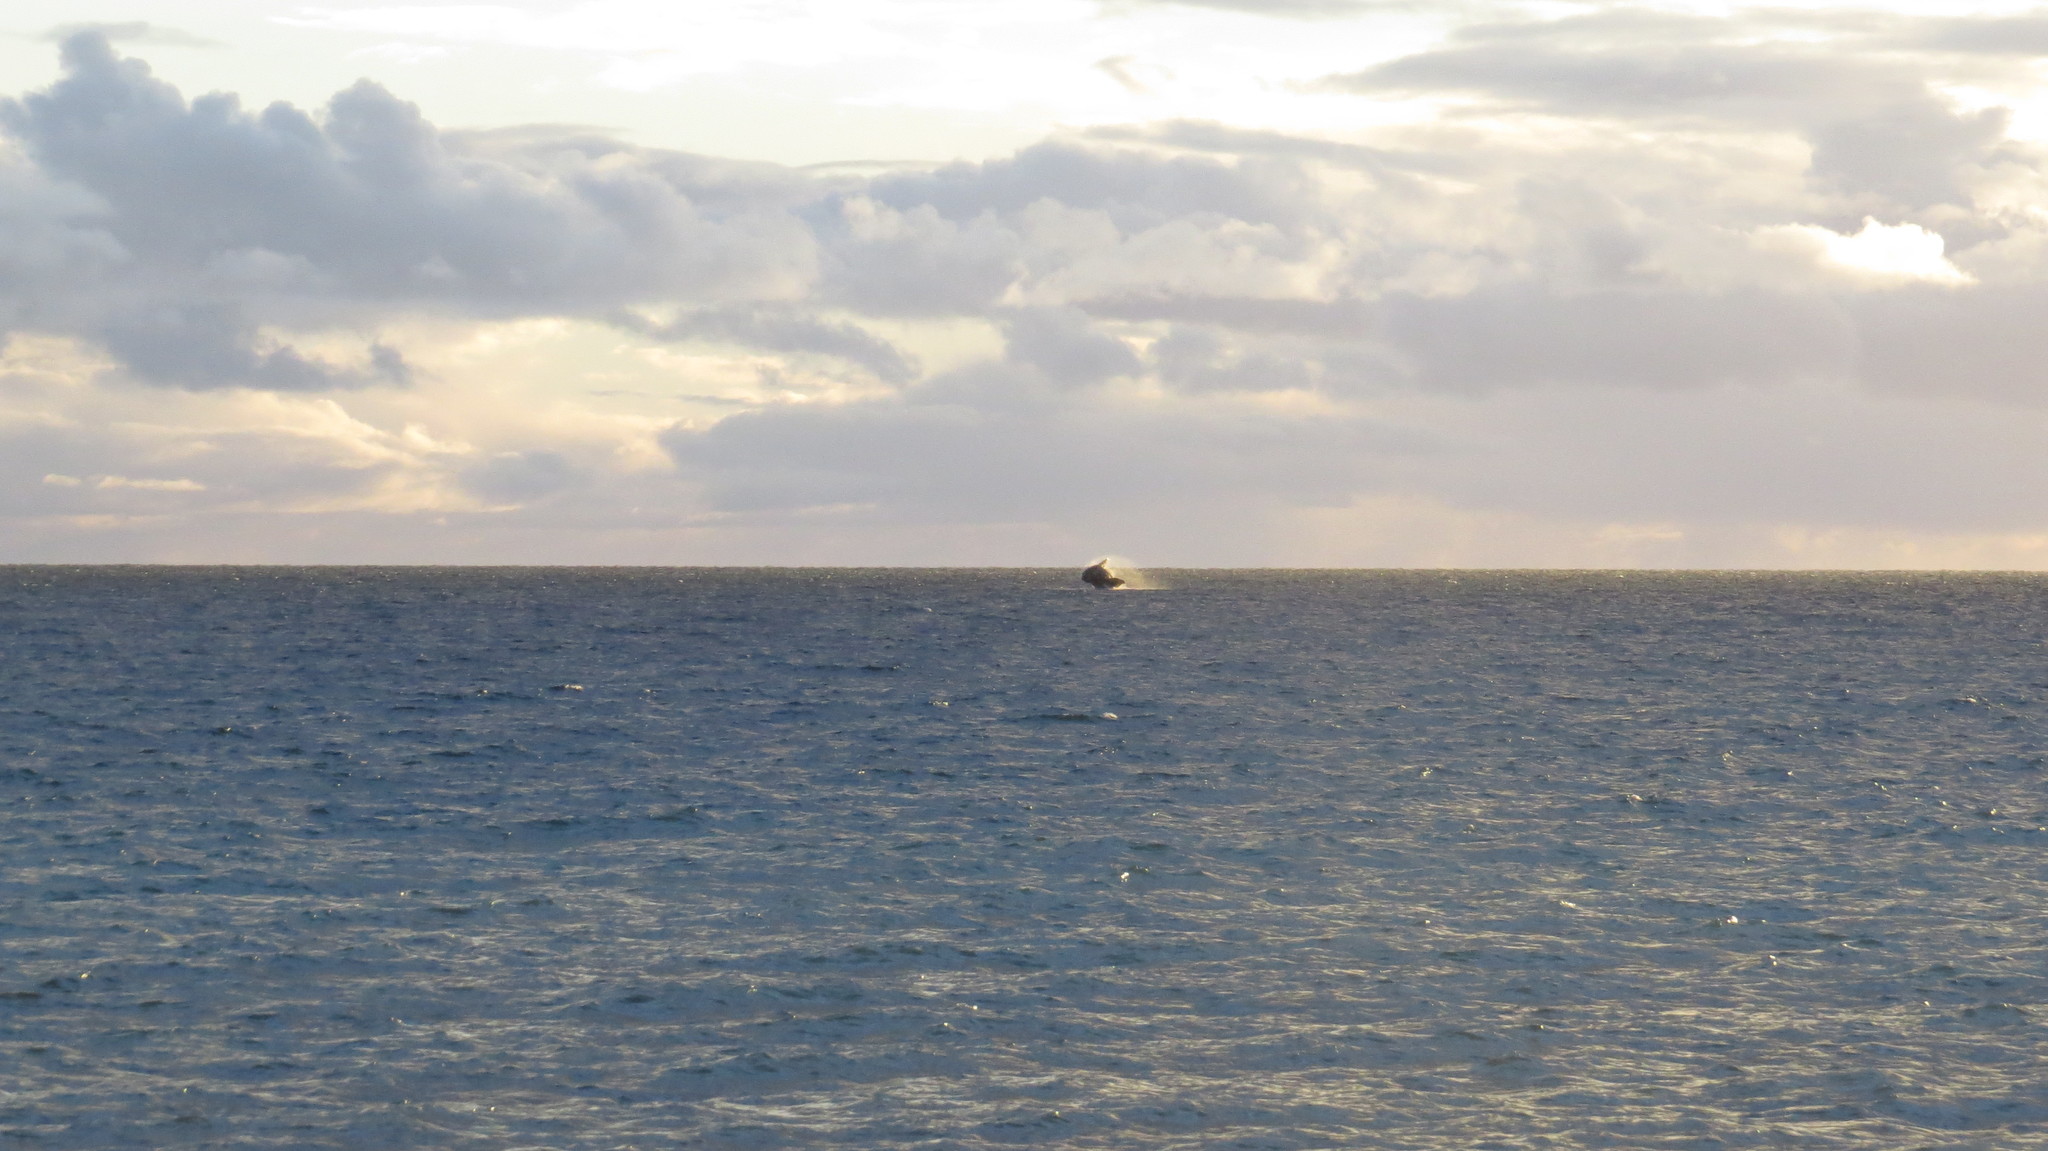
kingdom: Animalia
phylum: Chordata
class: Mammalia
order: Cetacea
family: Balaenidae
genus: Eubalaena
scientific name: Eubalaena australis
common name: Southern right whale
